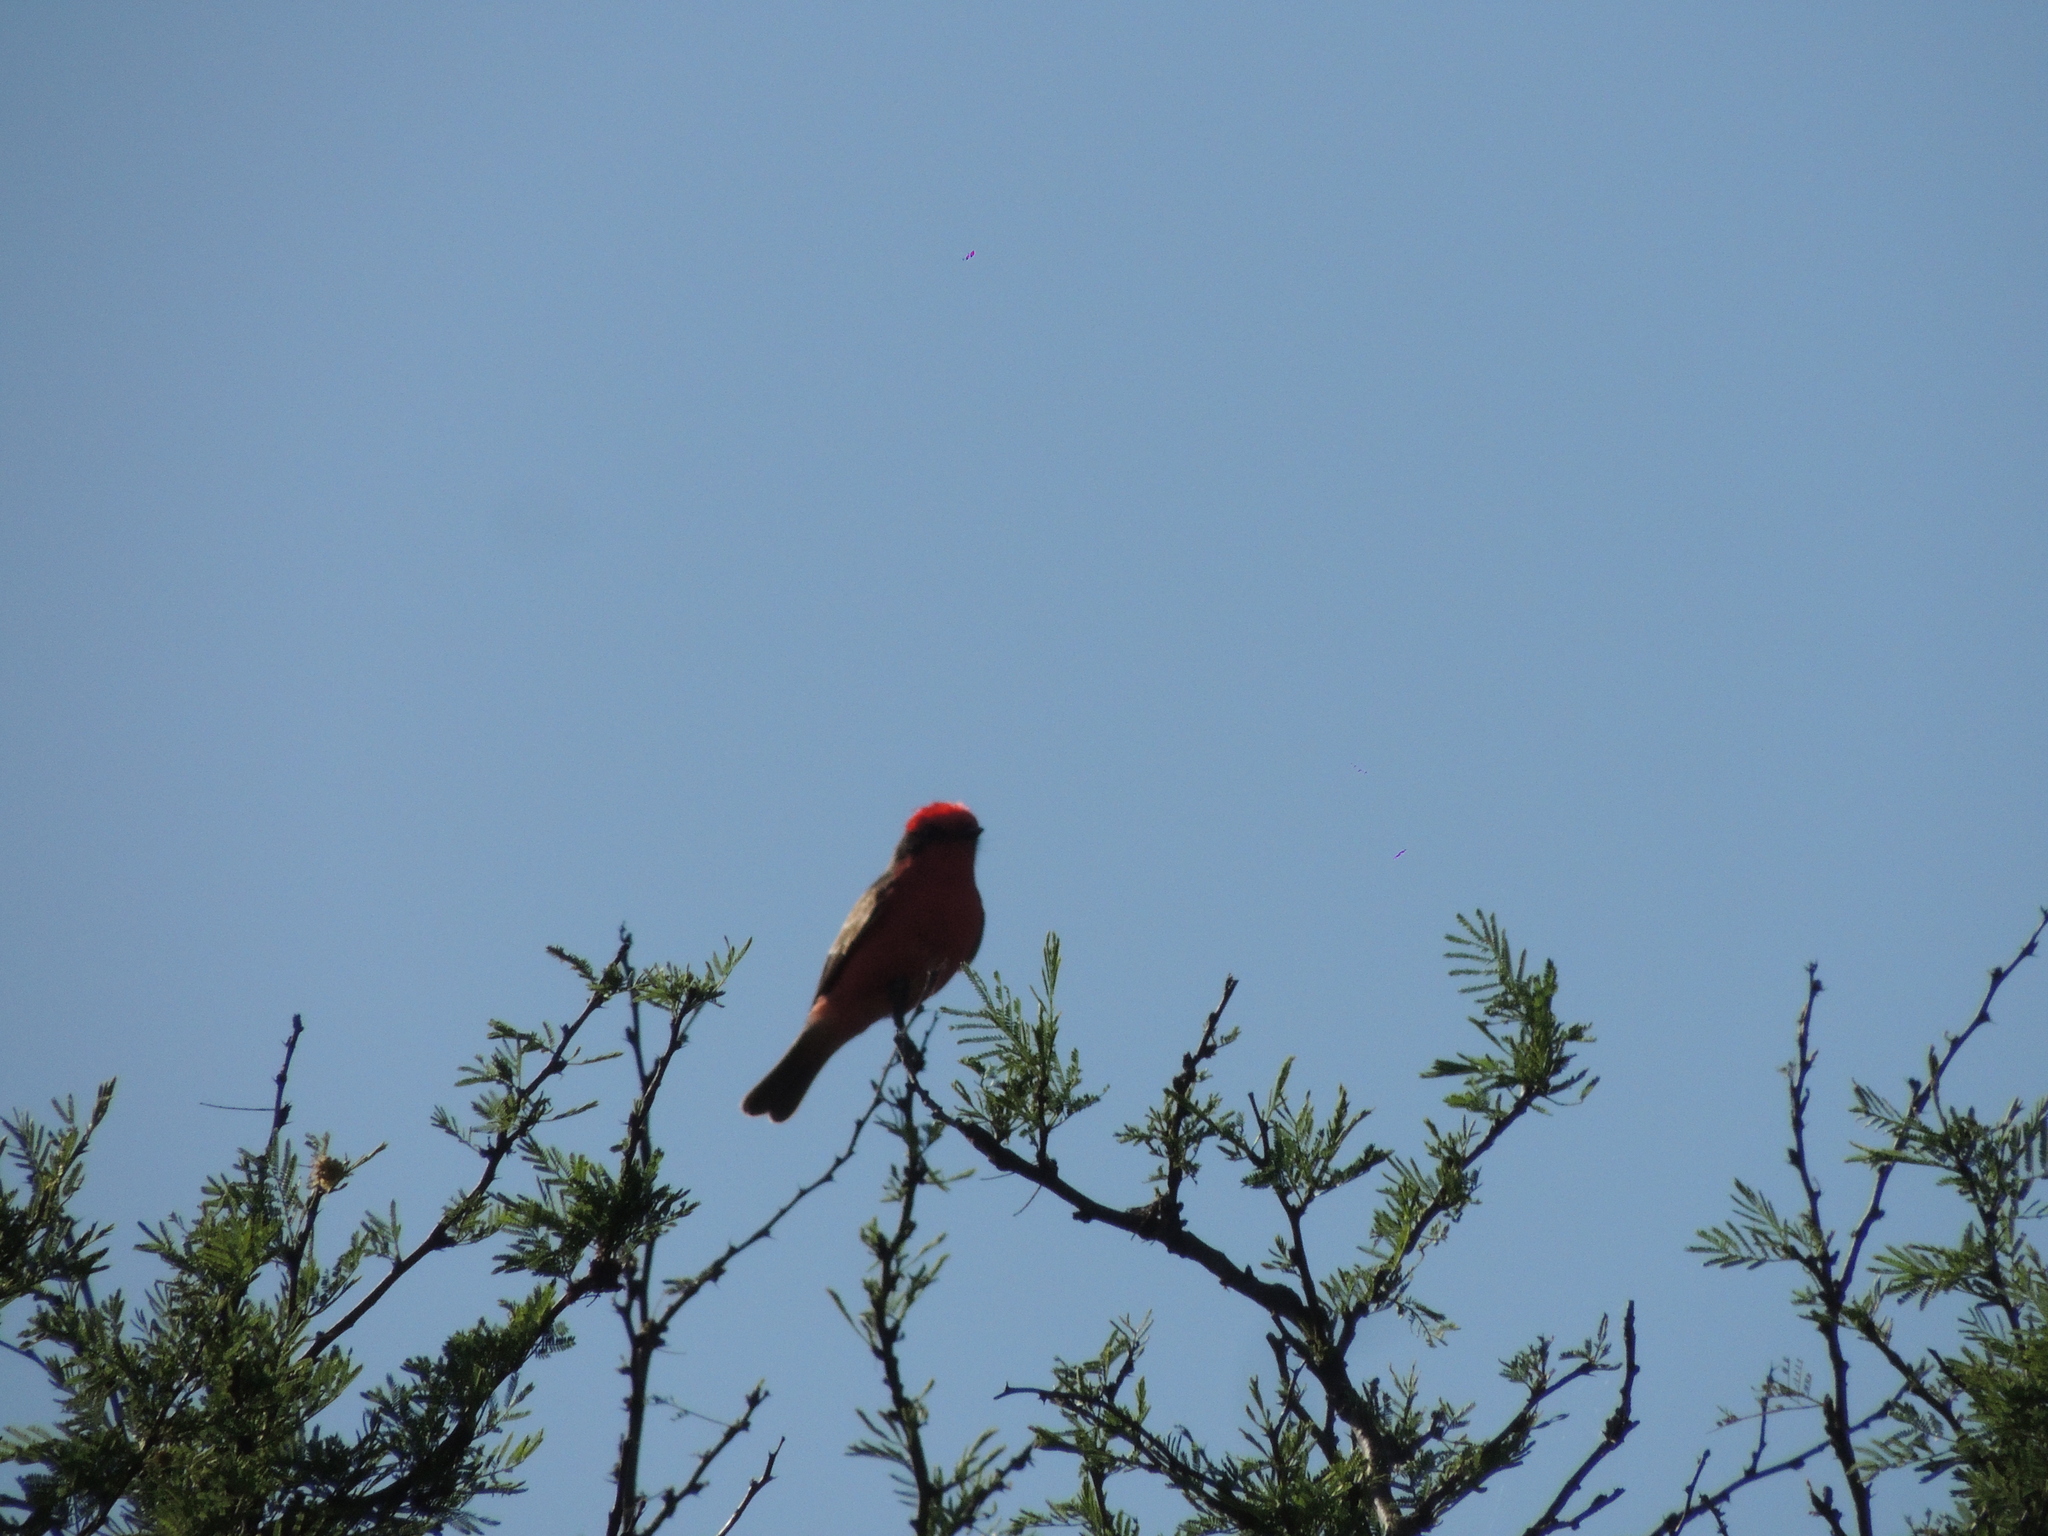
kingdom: Animalia
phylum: Chordata
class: Aves
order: Passeriformes
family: Tyrannidae
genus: Pyrocephalus
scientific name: Pyrocephalus rubinus
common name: Vermilion flycatcher
